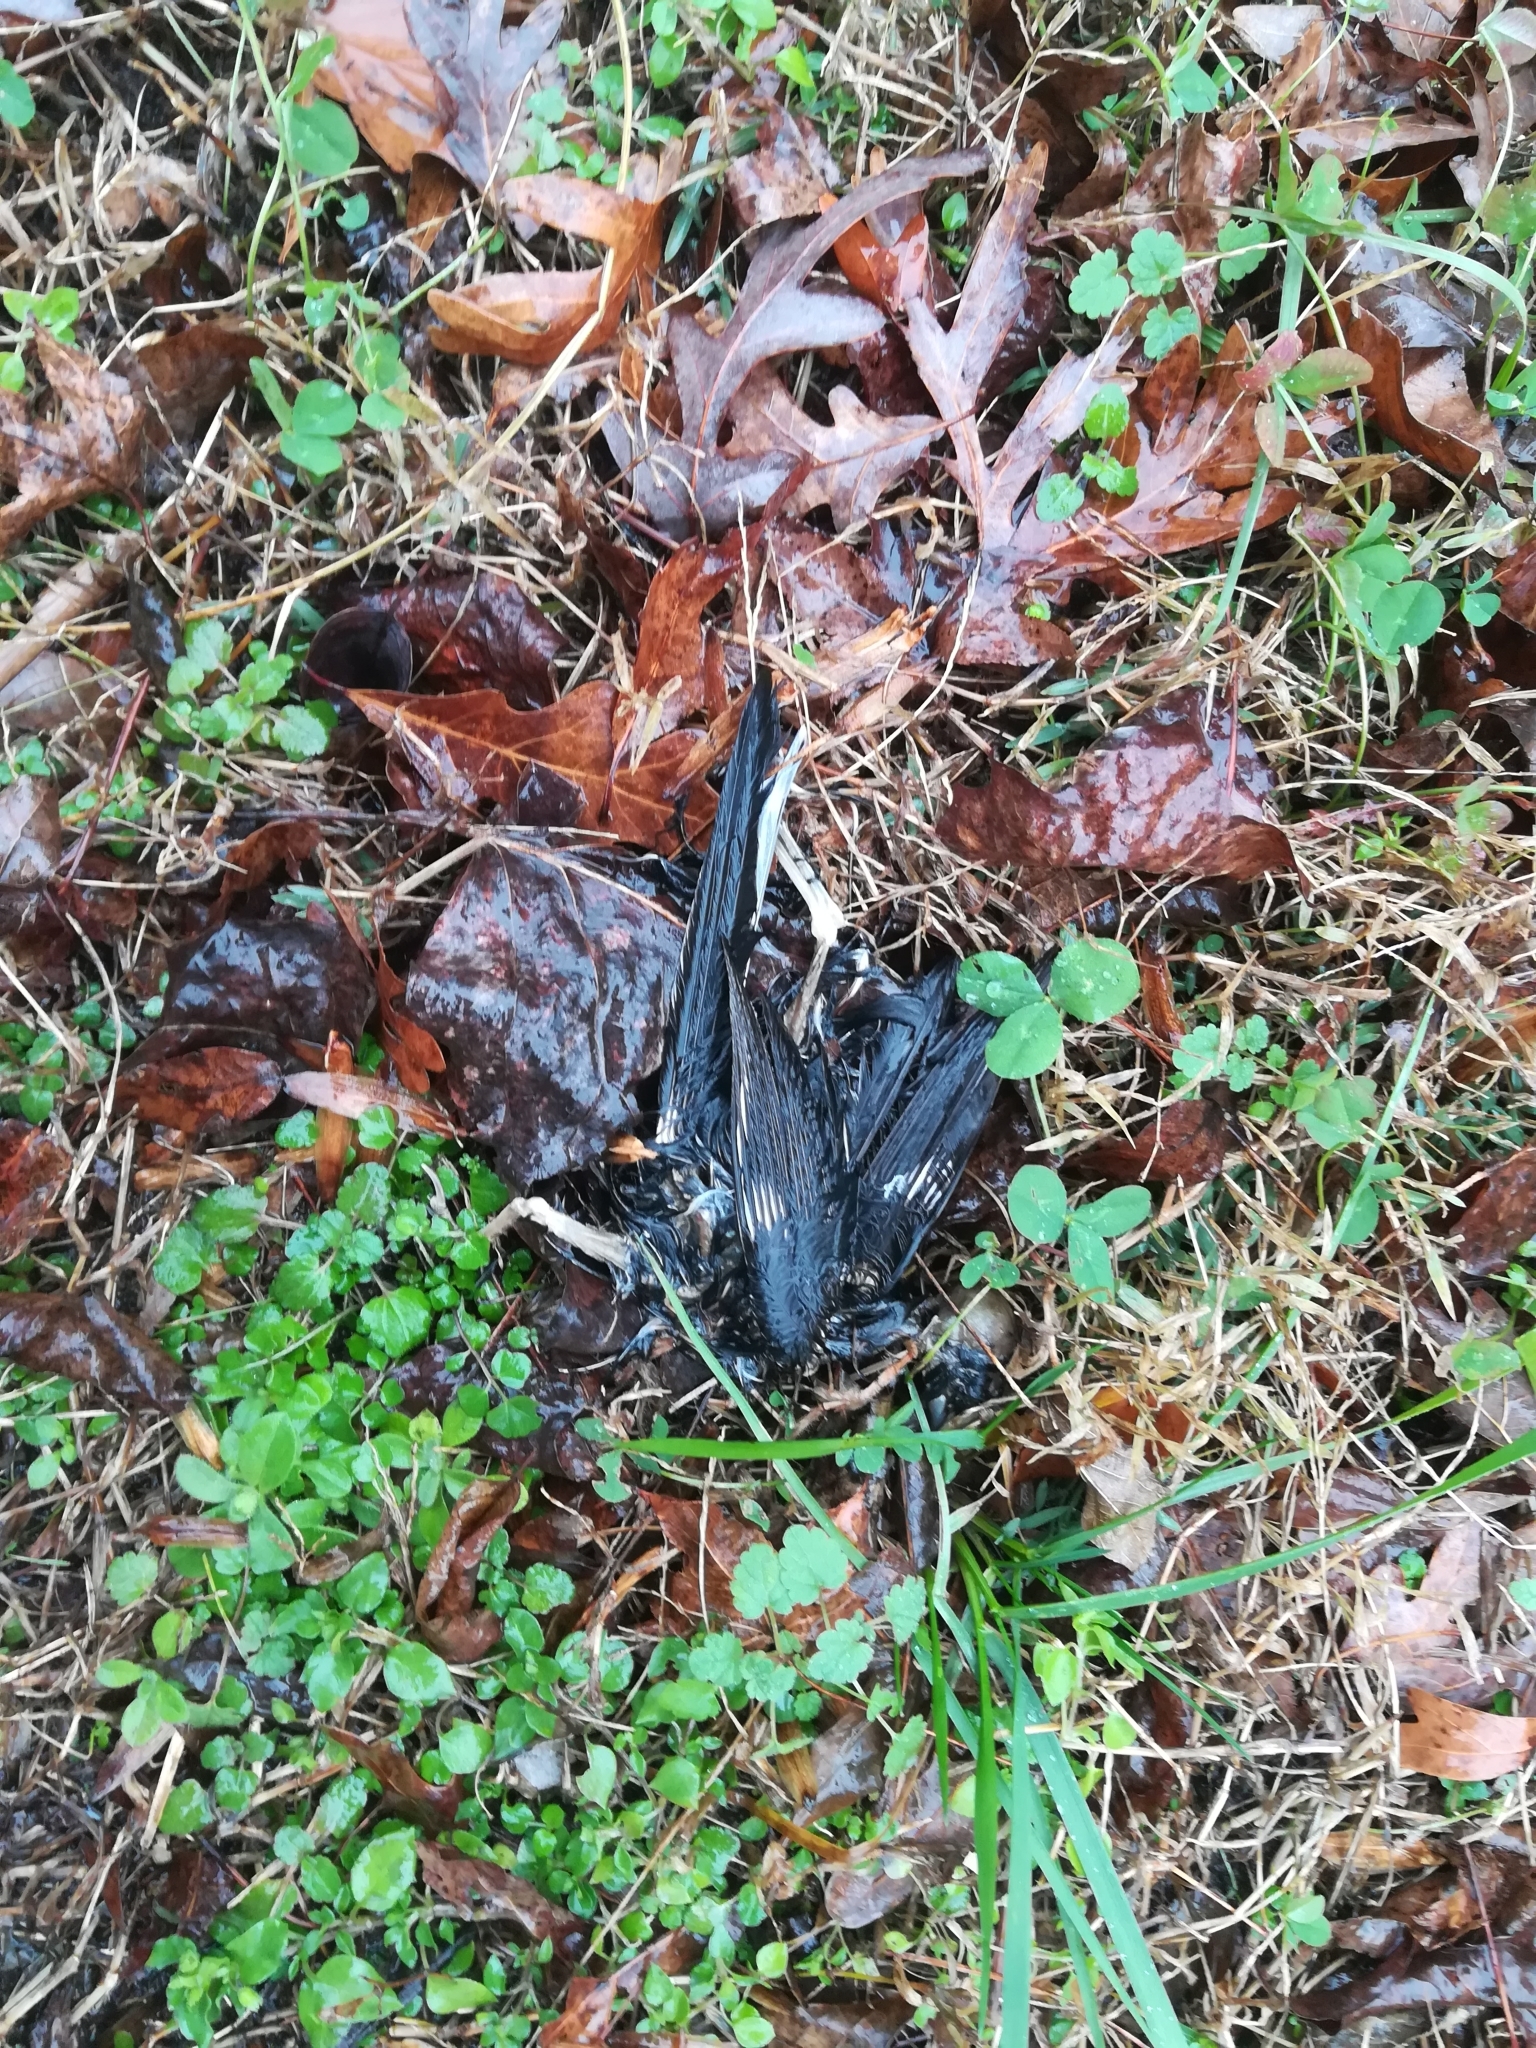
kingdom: Animalia
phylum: Chordata
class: Aves
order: Passeriformes
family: Passerellidae
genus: Pipilo
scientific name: Pipilo erythrophthalmus
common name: Eastern towhee
